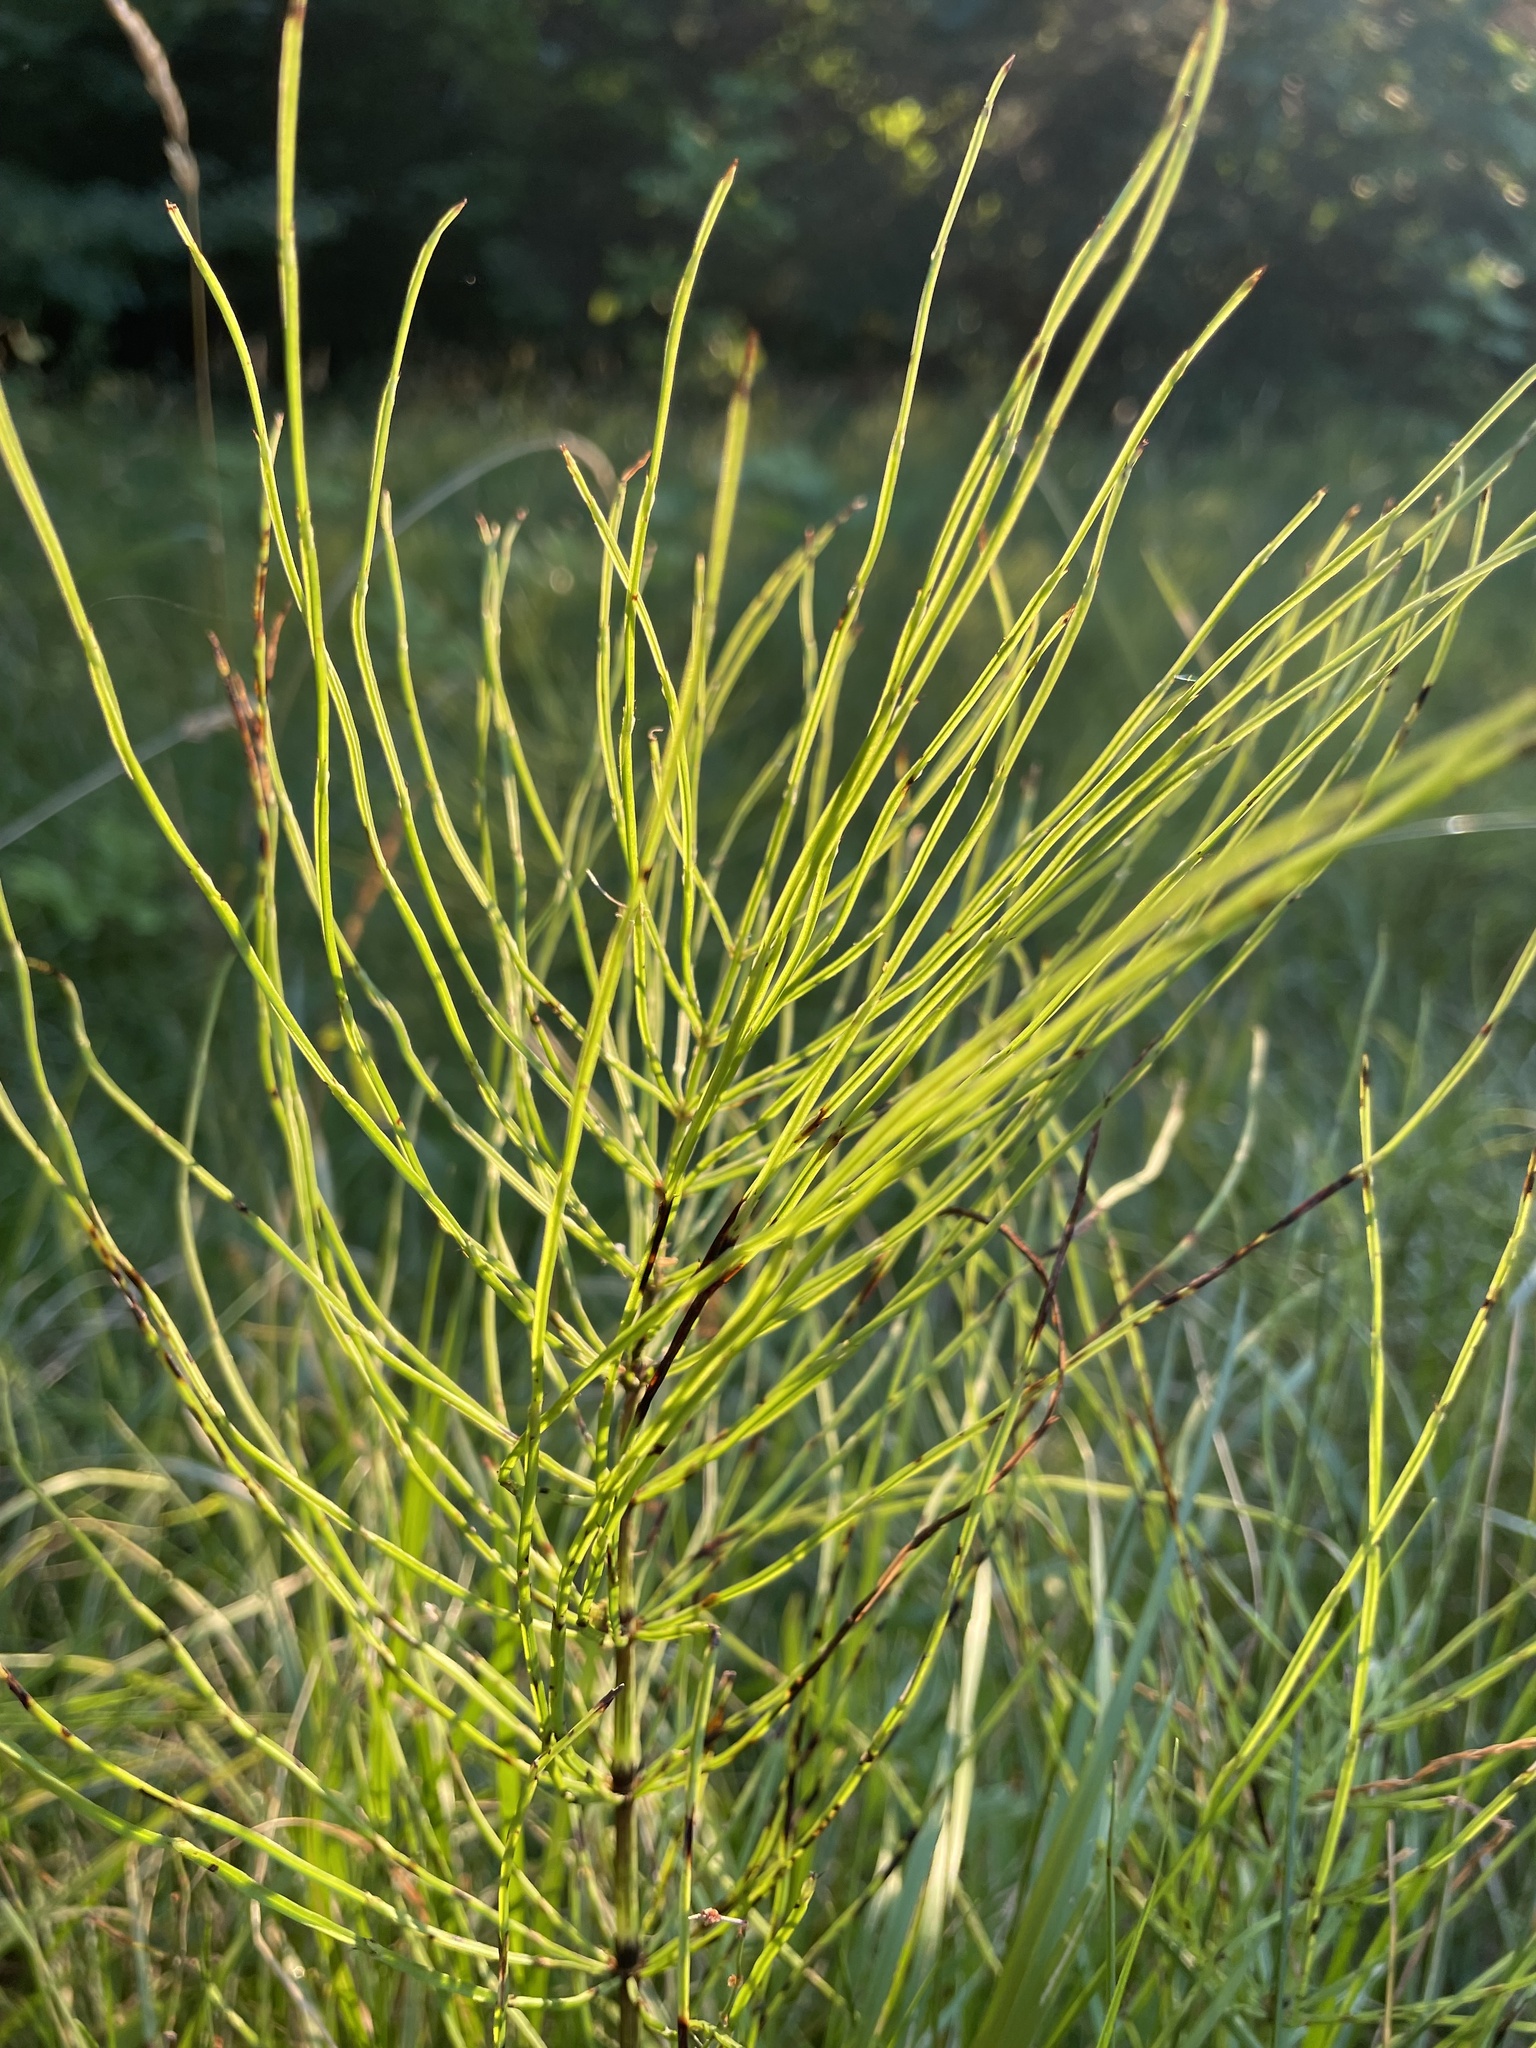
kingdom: Plantae
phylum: Tracheophyta
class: Polypodiopsida
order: Equisetales
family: Equisetaceae
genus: Equisetum
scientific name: Equisetum arvense
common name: Field horsetail
